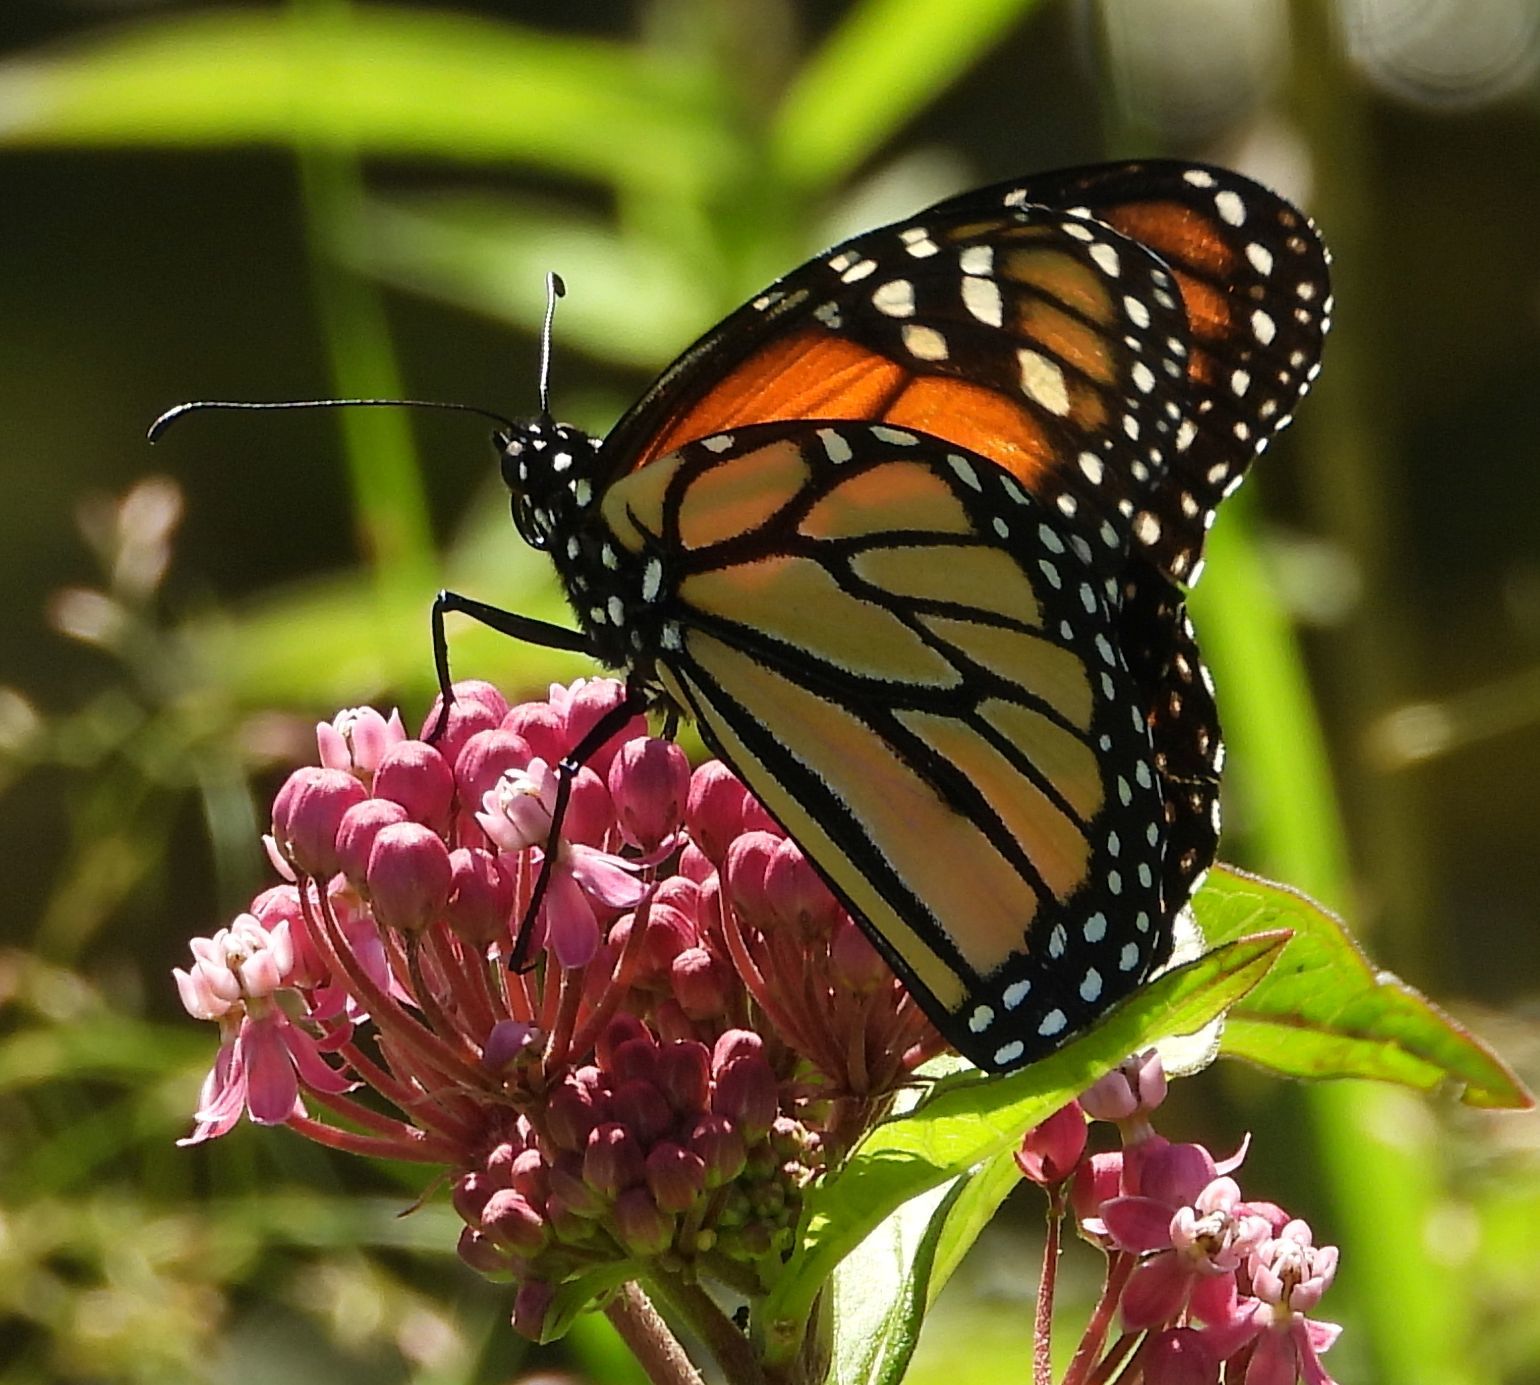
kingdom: Animalia
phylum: Arthropoda
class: Insecta
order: Lepidoptera
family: Nymphalidae
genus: Danaus
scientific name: Danaus plexippus
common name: Monarch
